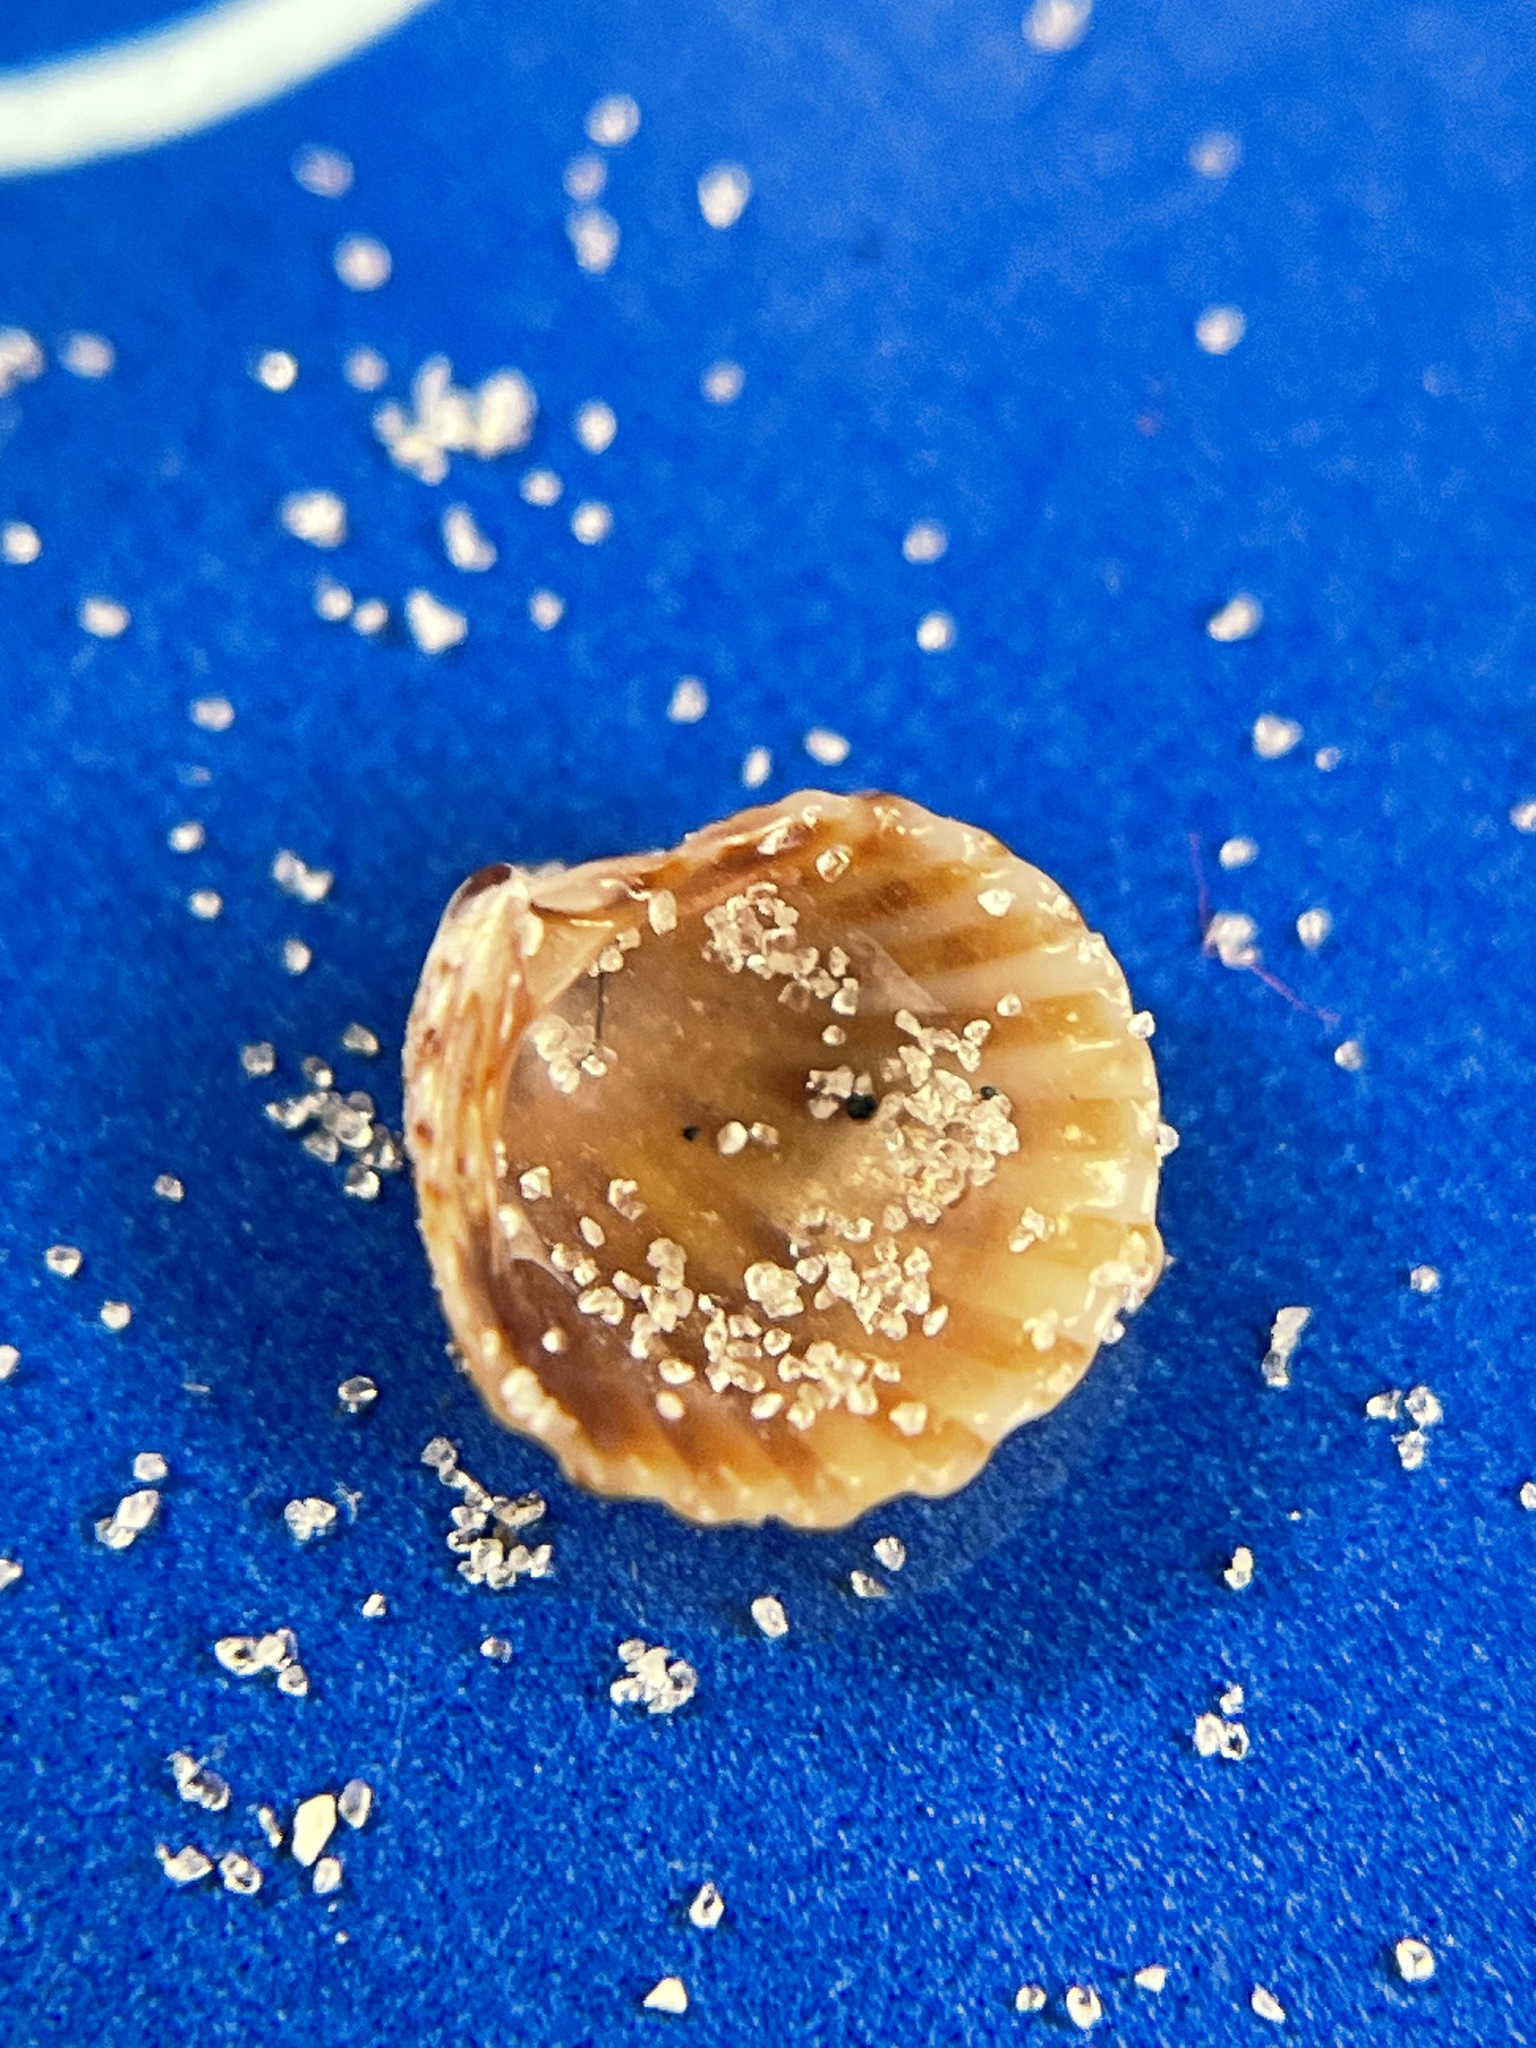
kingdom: Animalia
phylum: Mollusca
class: Bivalvia
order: Carditida
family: Carditidae
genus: Pleuromeris
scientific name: Pleuromeris tridentata
